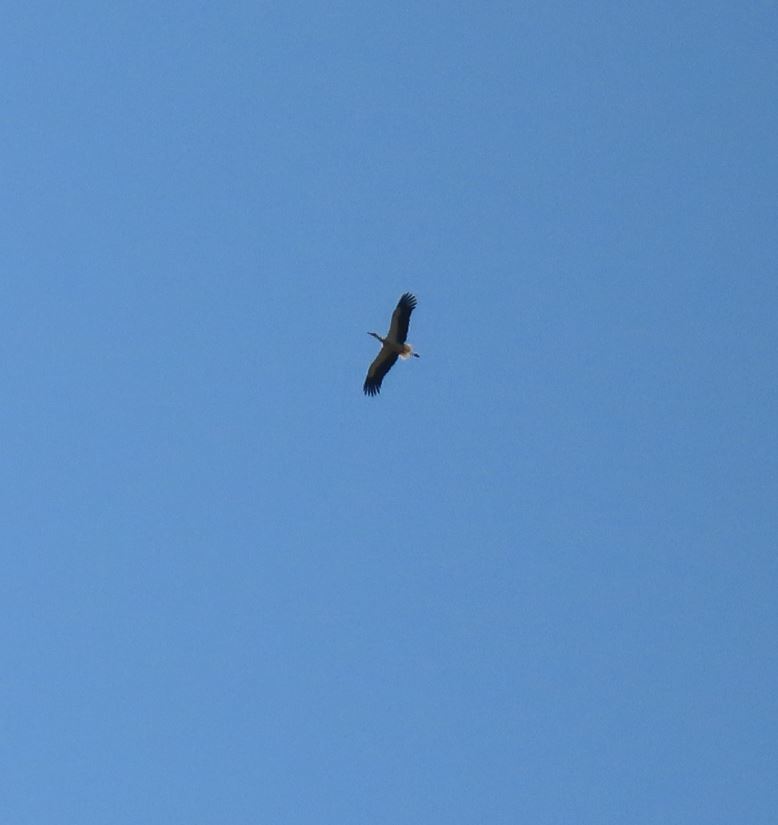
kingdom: Animalia
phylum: Chordata
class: Aves
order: Ciconiiformes
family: Ciconiidae
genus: Ciconia
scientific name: Ciconia ciconia
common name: White stork
